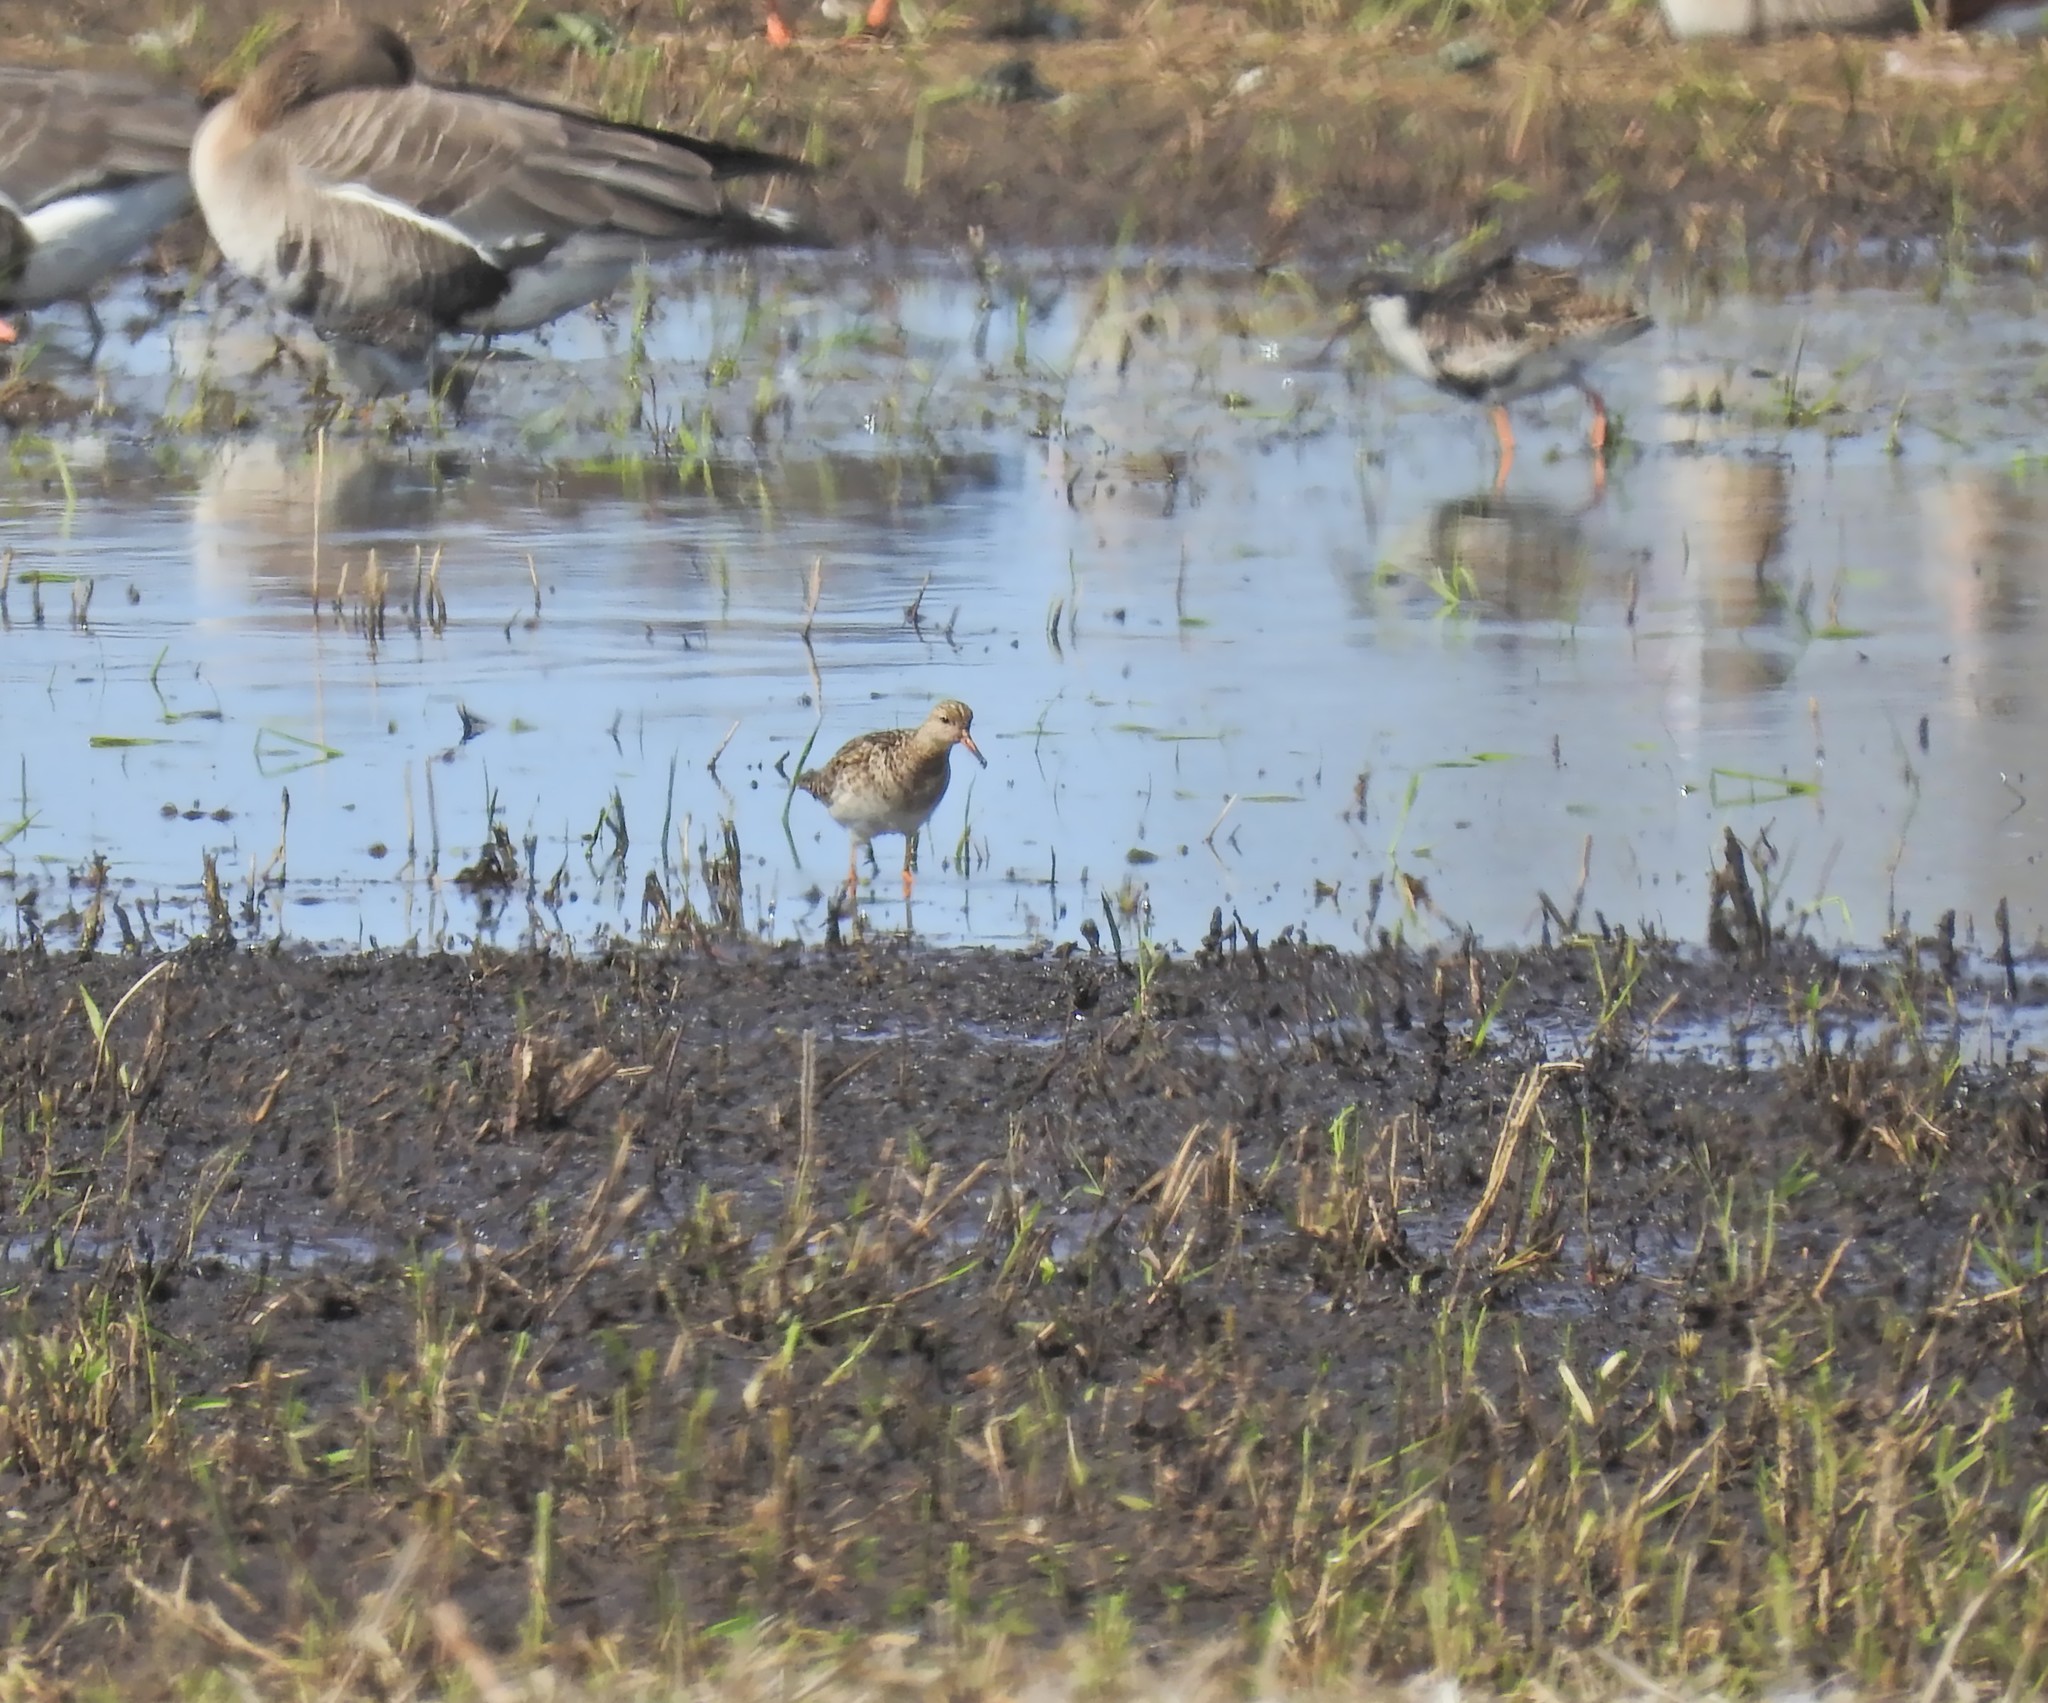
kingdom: Animalia
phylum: Chordata
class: Aves
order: Charadriiformes
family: Scolopacidae
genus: Calidris
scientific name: Calidris pugnax
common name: Ruff
